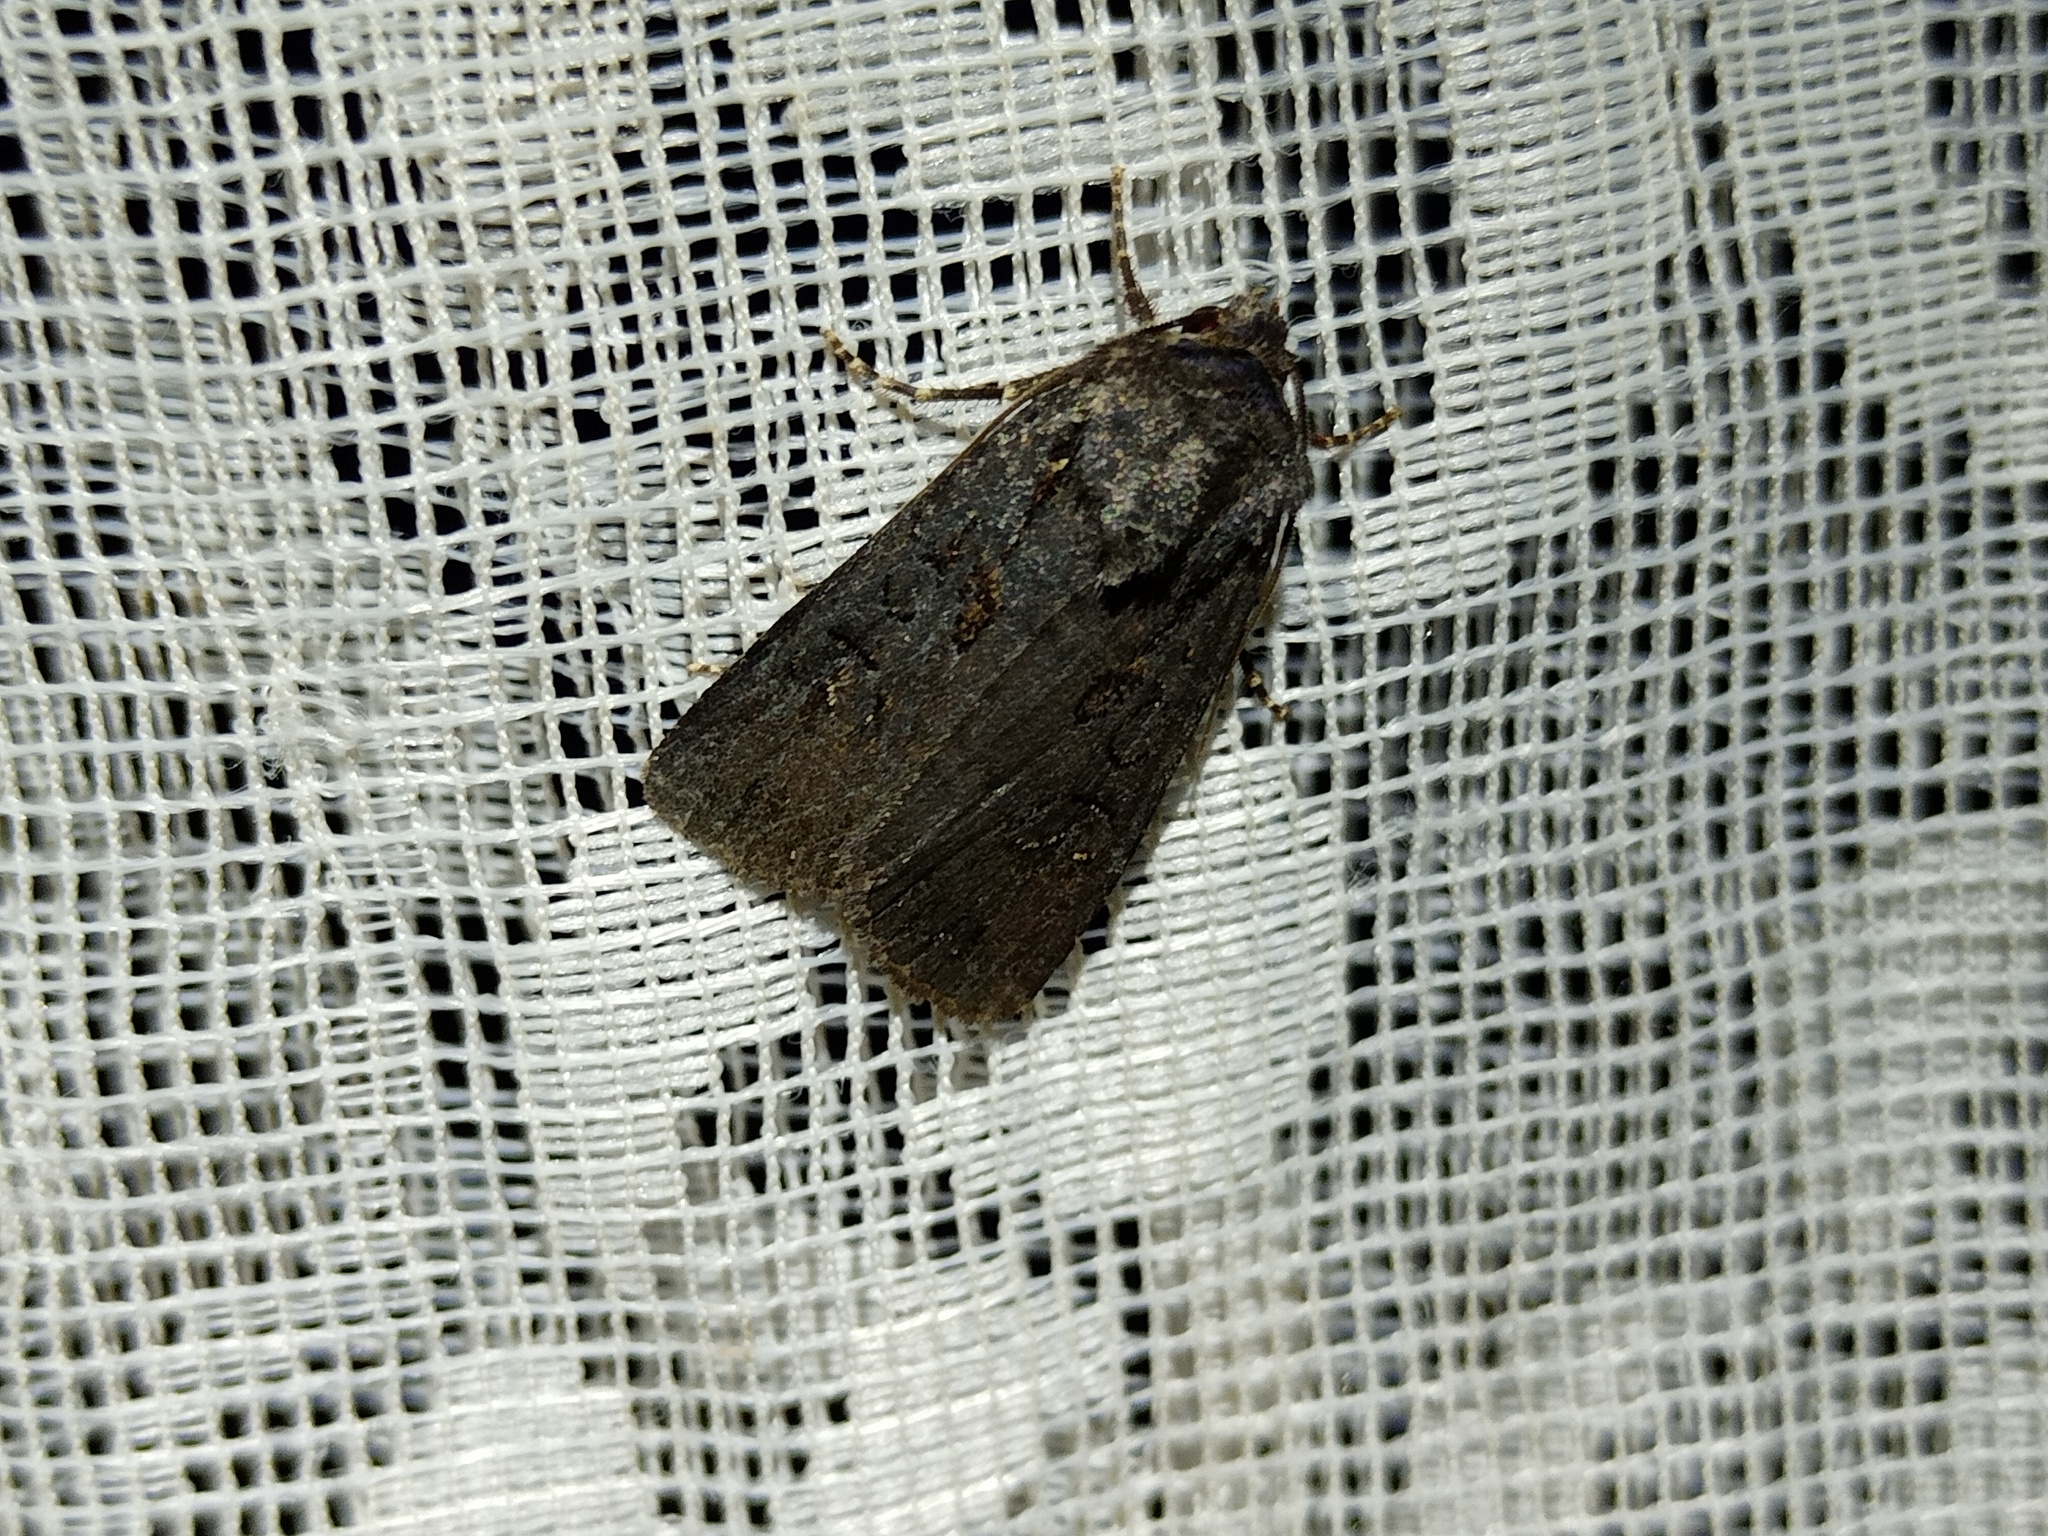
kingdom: Animalia
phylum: Arthropoda
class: Insecta
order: Lepidoptera
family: Noctuidae
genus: Euxoa
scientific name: Euxoa nigricans
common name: Garden dart
